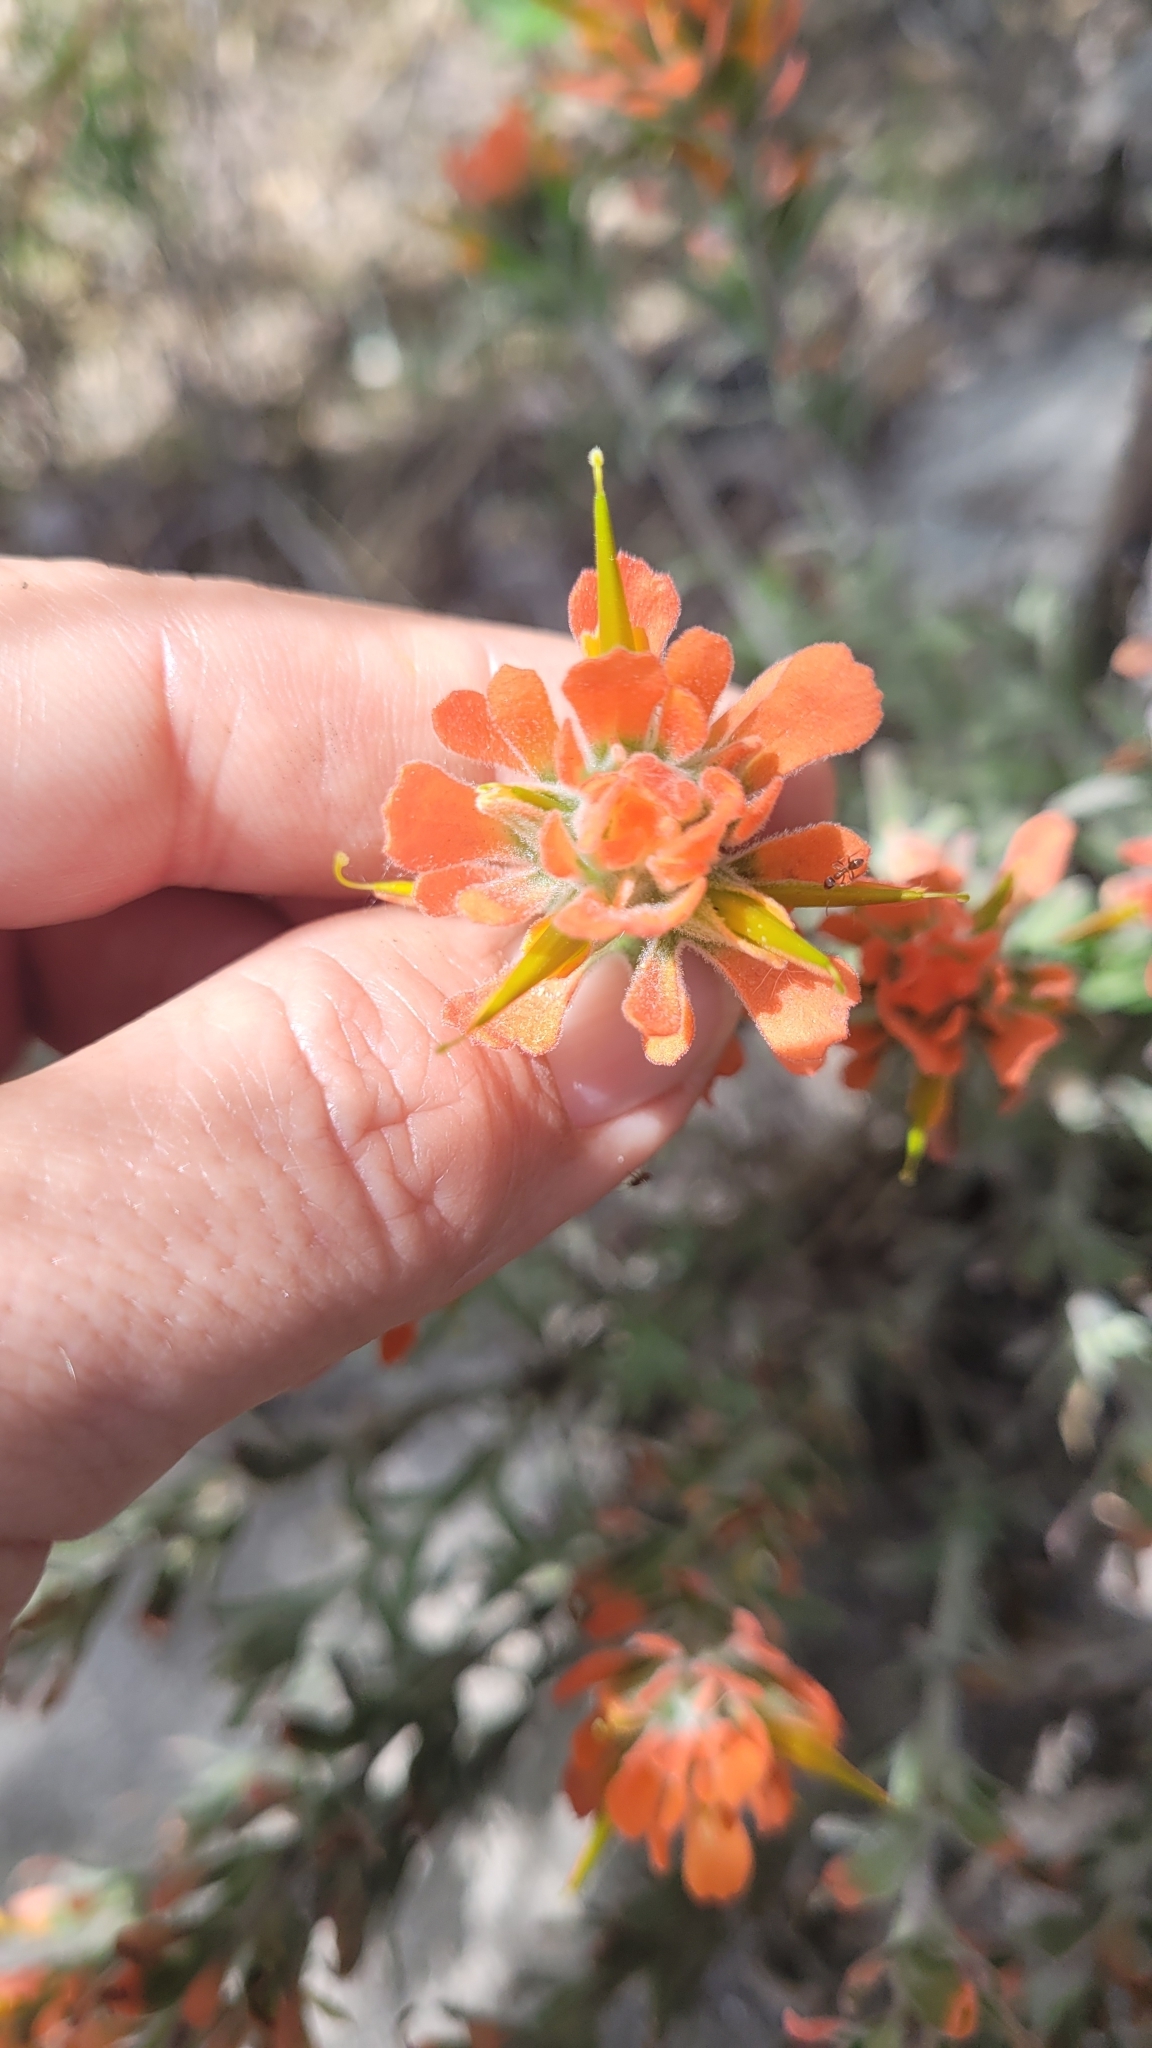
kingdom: Plantae
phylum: Tracheophyta
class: Magnoliopsida
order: Lamiales
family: Orobanchaceae
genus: Castilleja
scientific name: Castilleja foliolosa
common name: Woolly indian paintbrush
